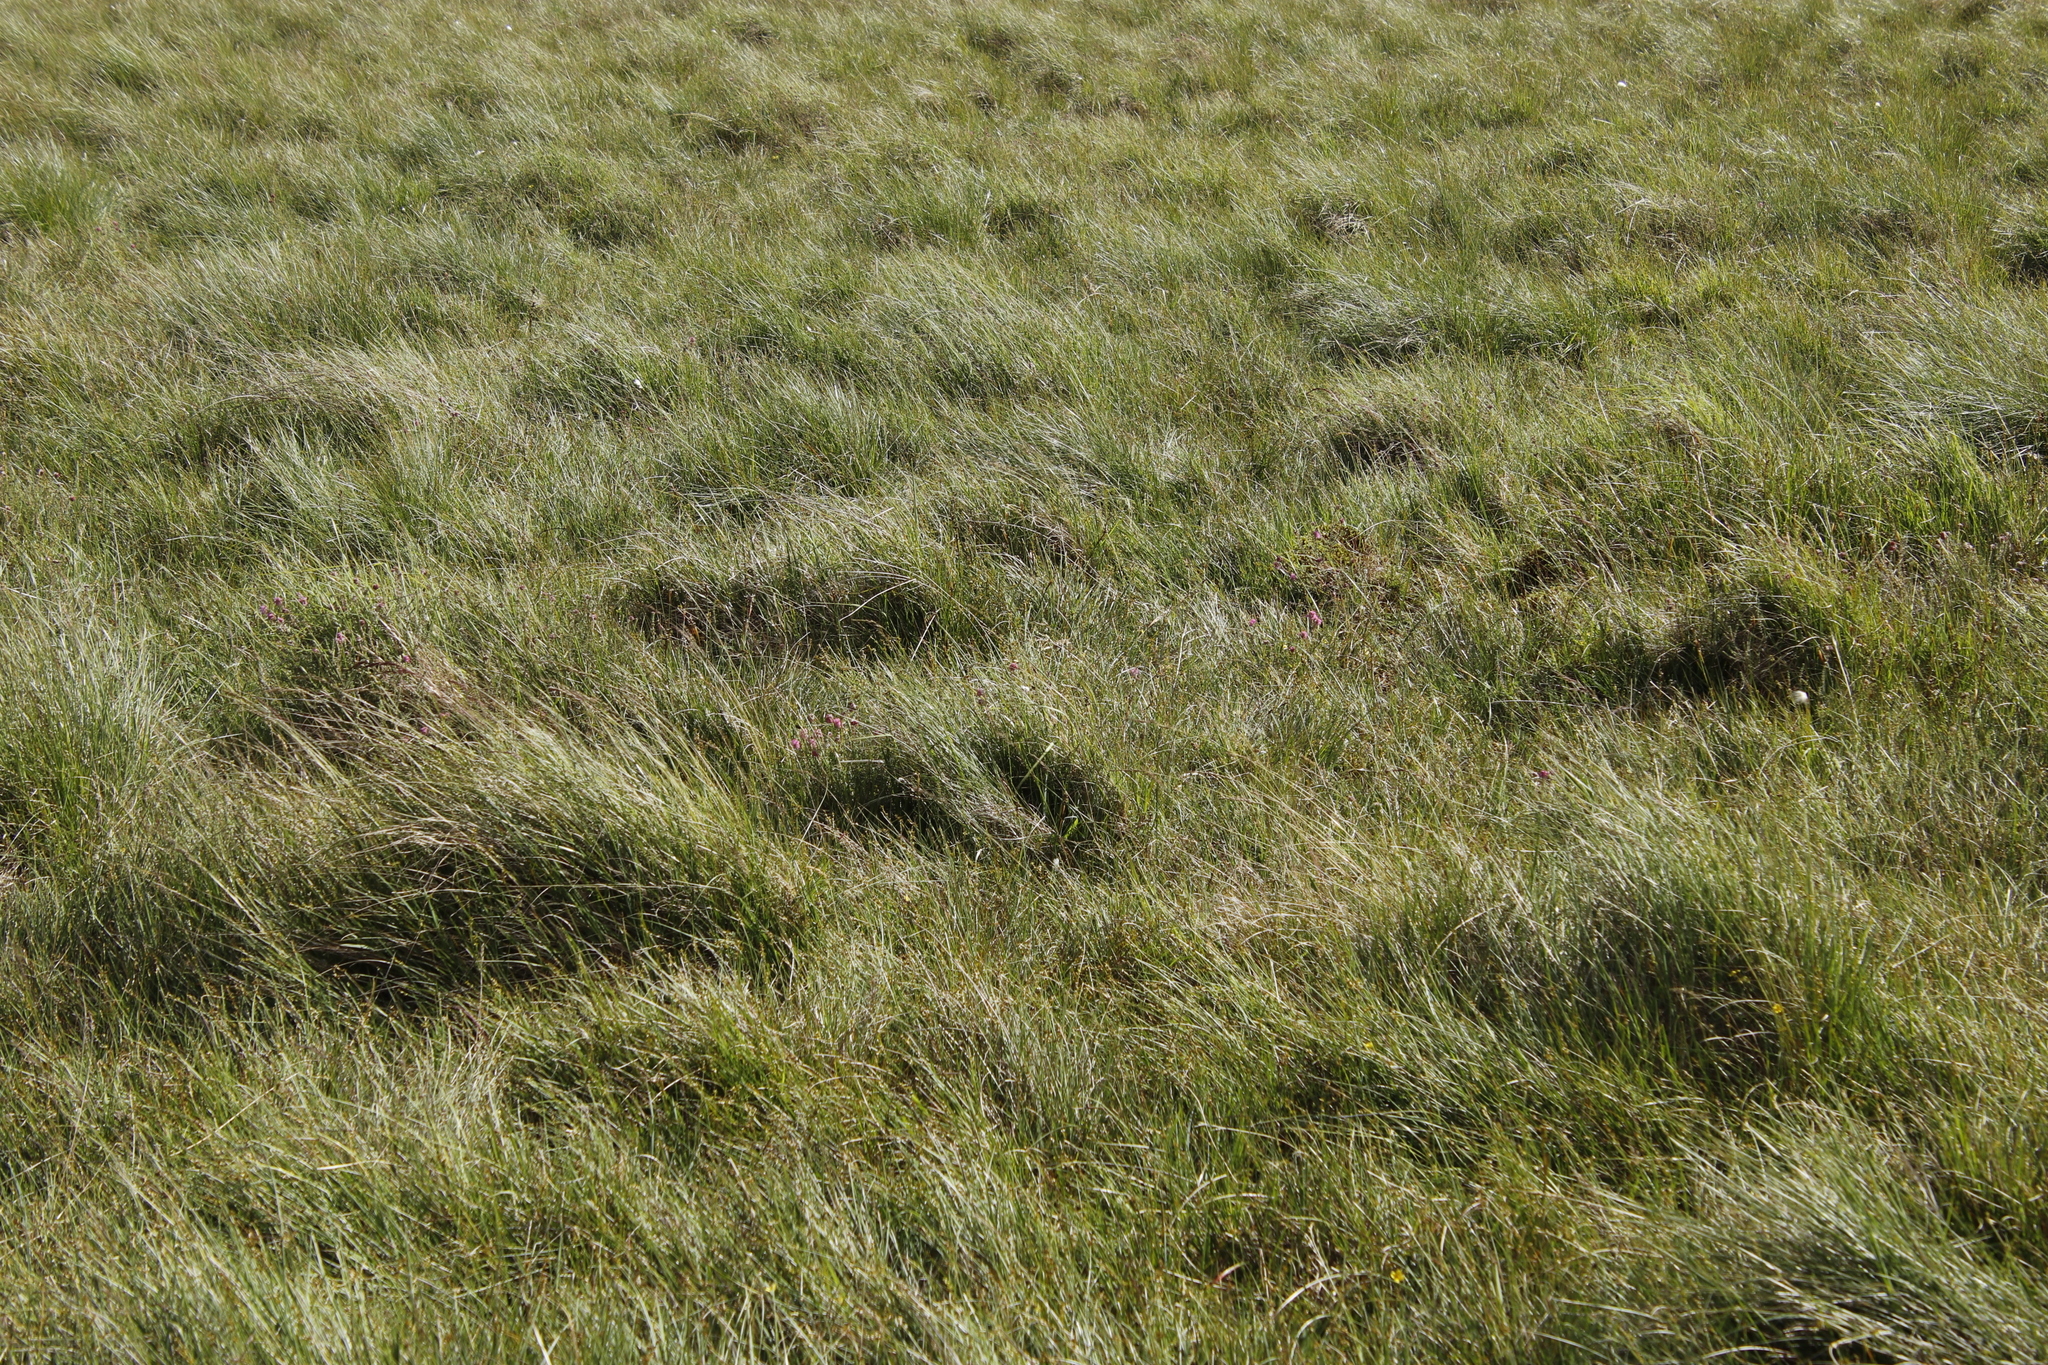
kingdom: Plantae
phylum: Tracheophyta
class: Magnoliopsida
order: Ericales
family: Ericaceae
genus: Erica
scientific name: Erica tetralix
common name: Cross-leaved heath
